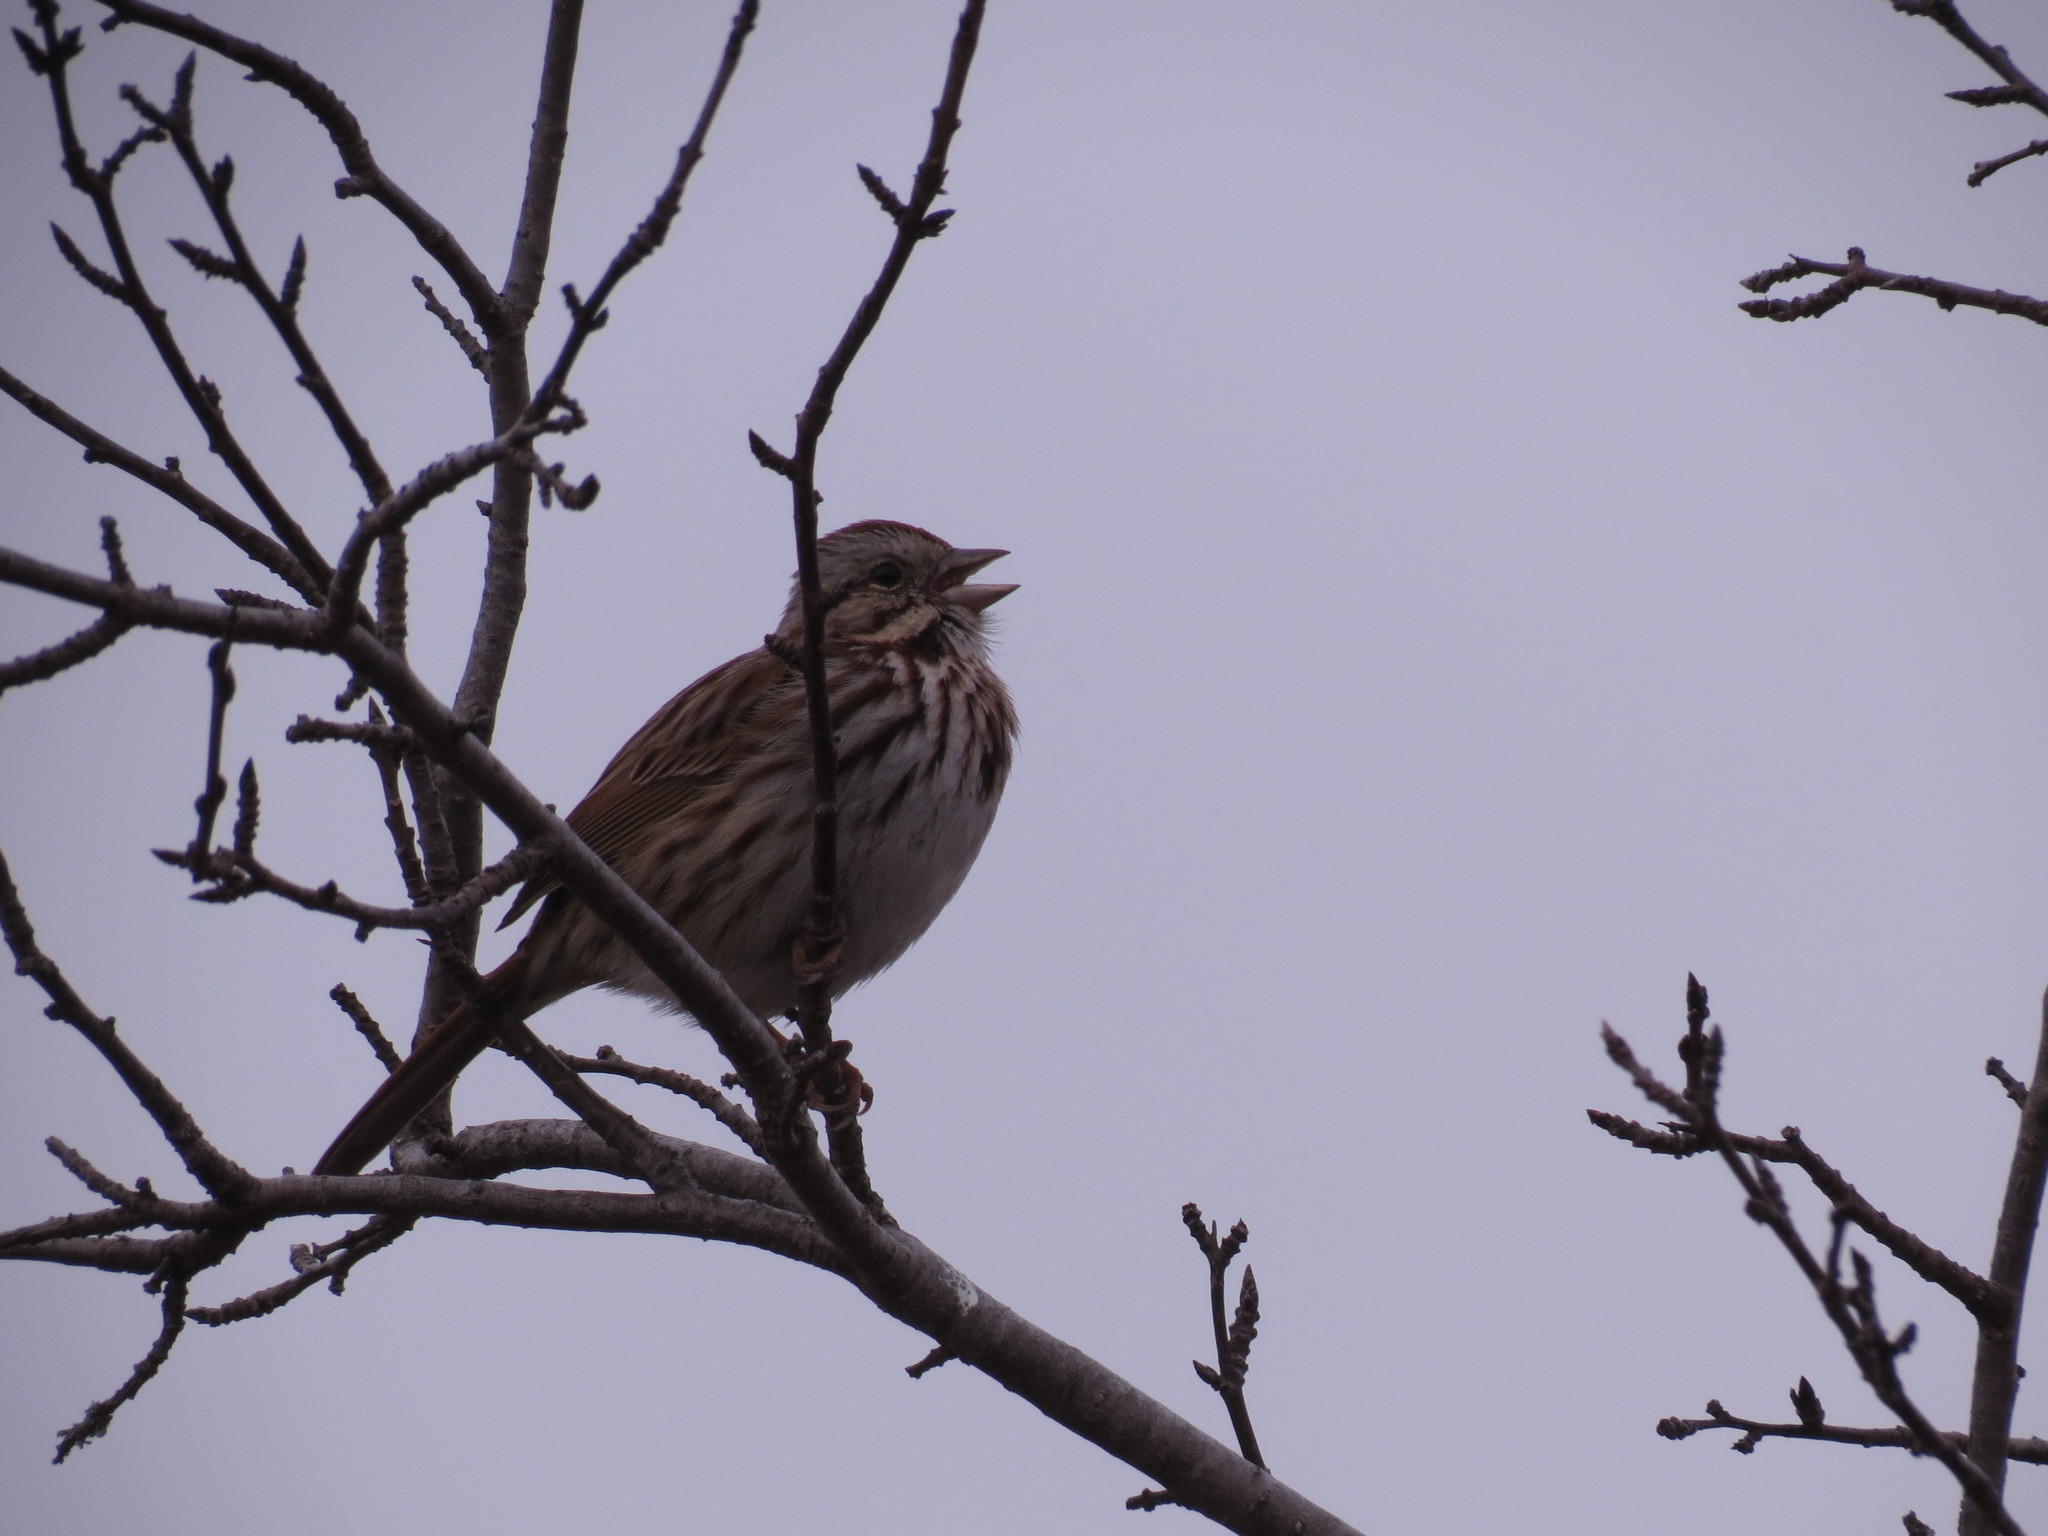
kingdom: Animalia
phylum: Chordata
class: Aves
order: Passeriformes
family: Passerellidae
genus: Melospiza
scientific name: Melospiza melodia
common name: Song sparrow
